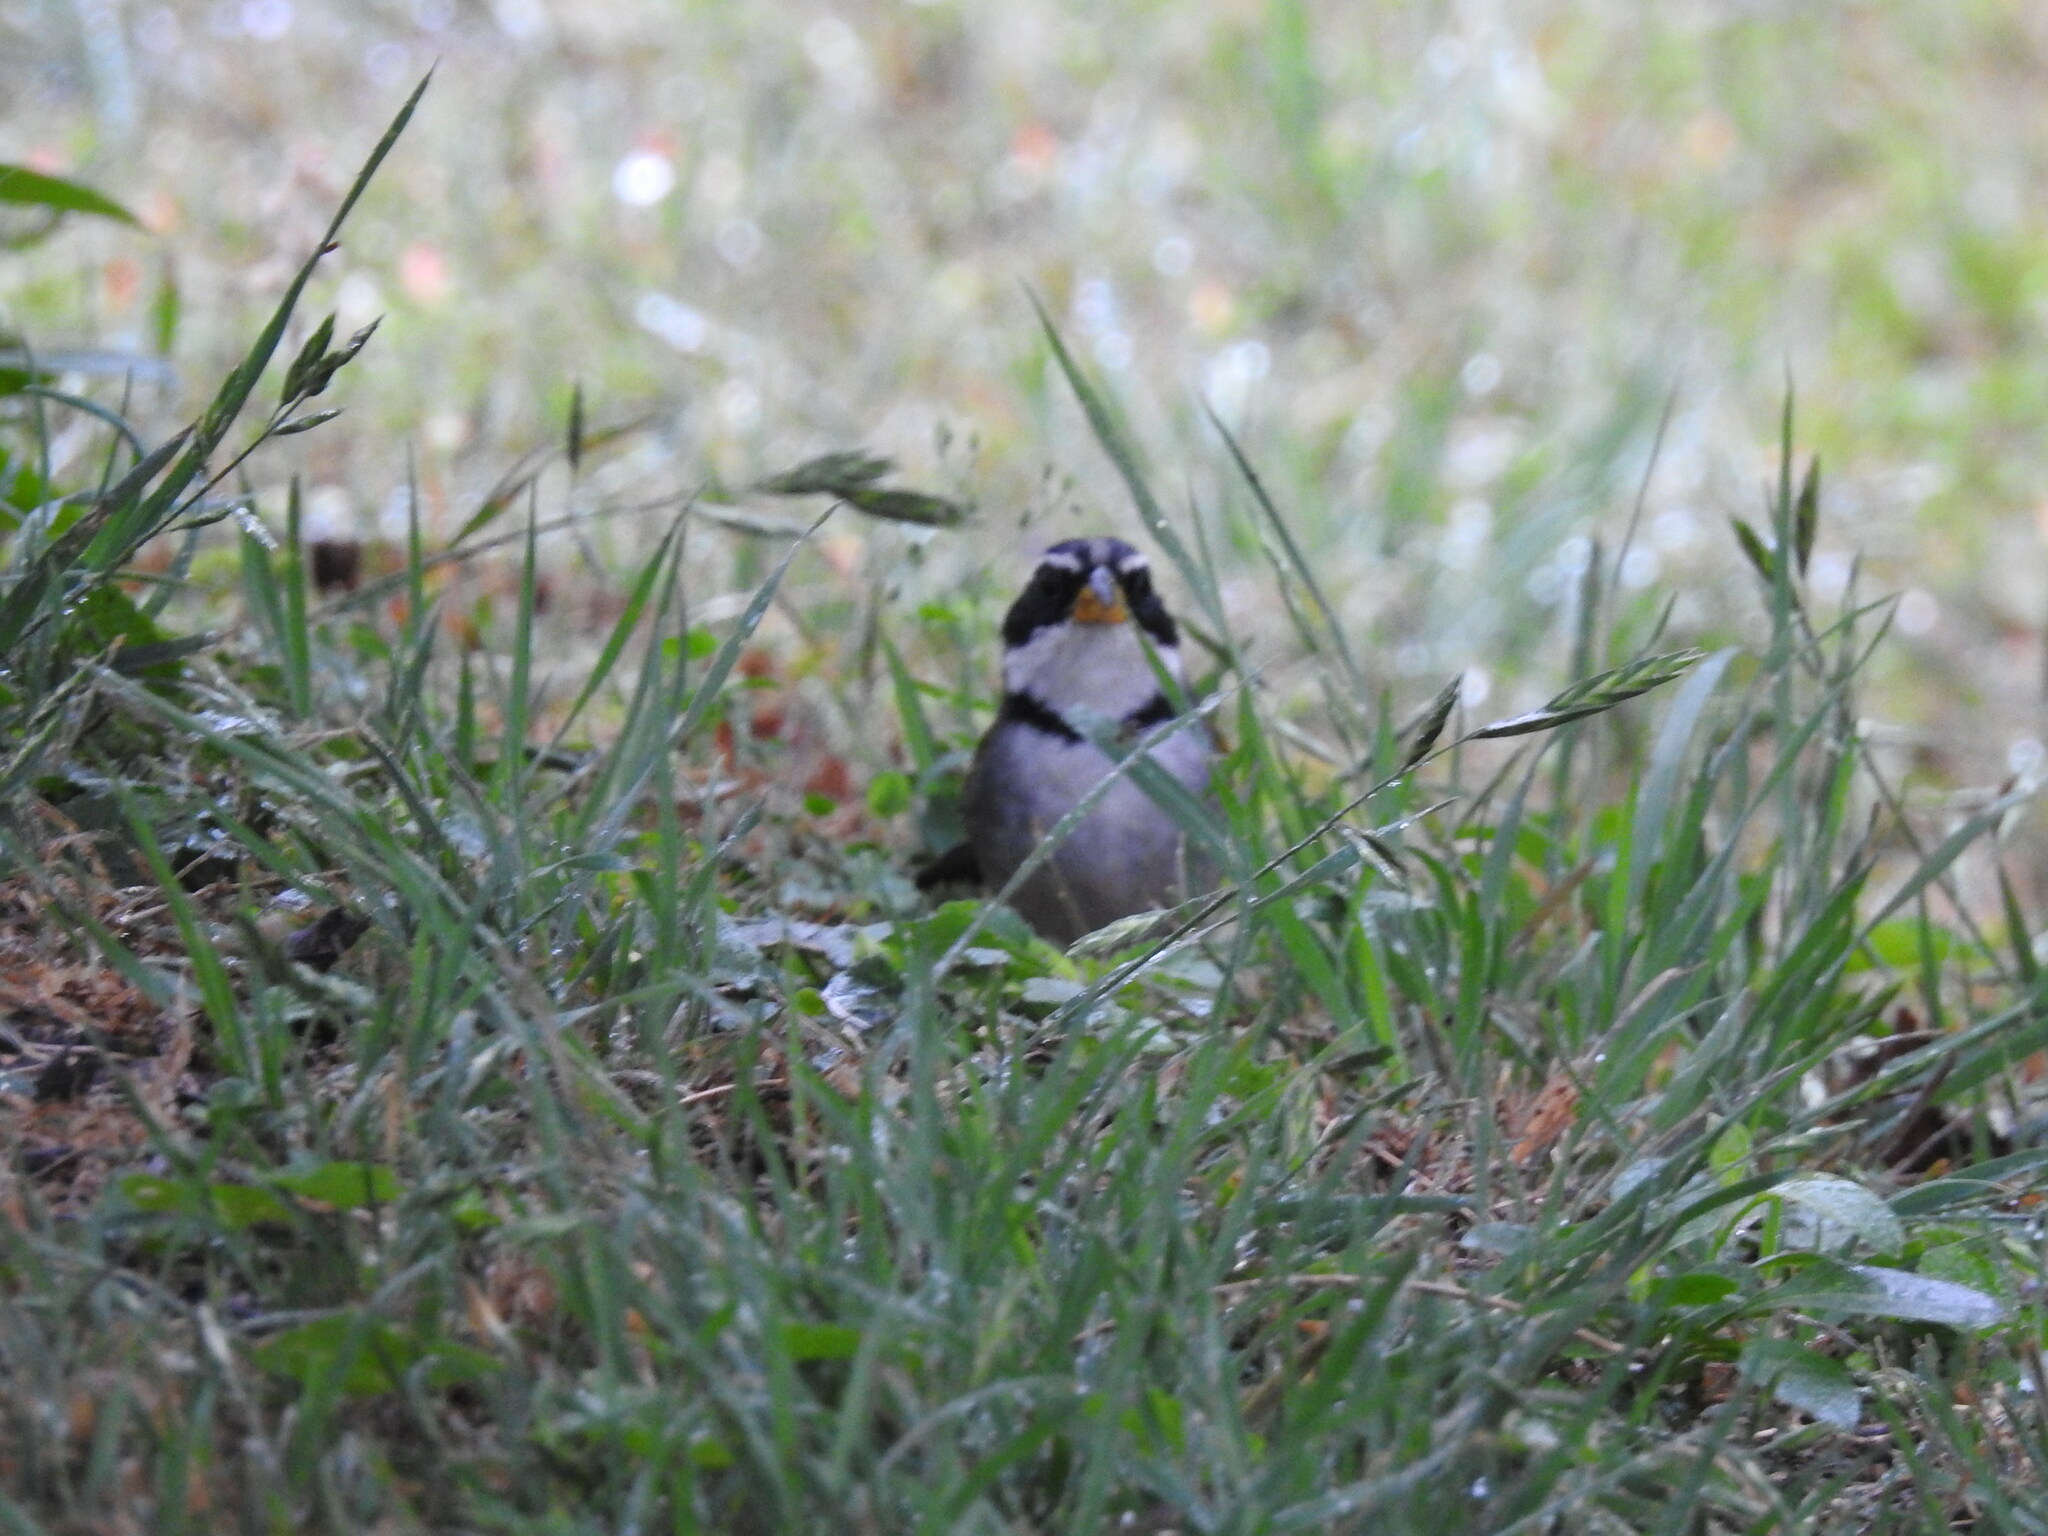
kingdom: Animalia
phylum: Chordata
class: Aves
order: Passeriformes
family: Passerellidae
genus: Arremon
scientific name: Arremon dorbignii
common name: Moss-backed sparrow
